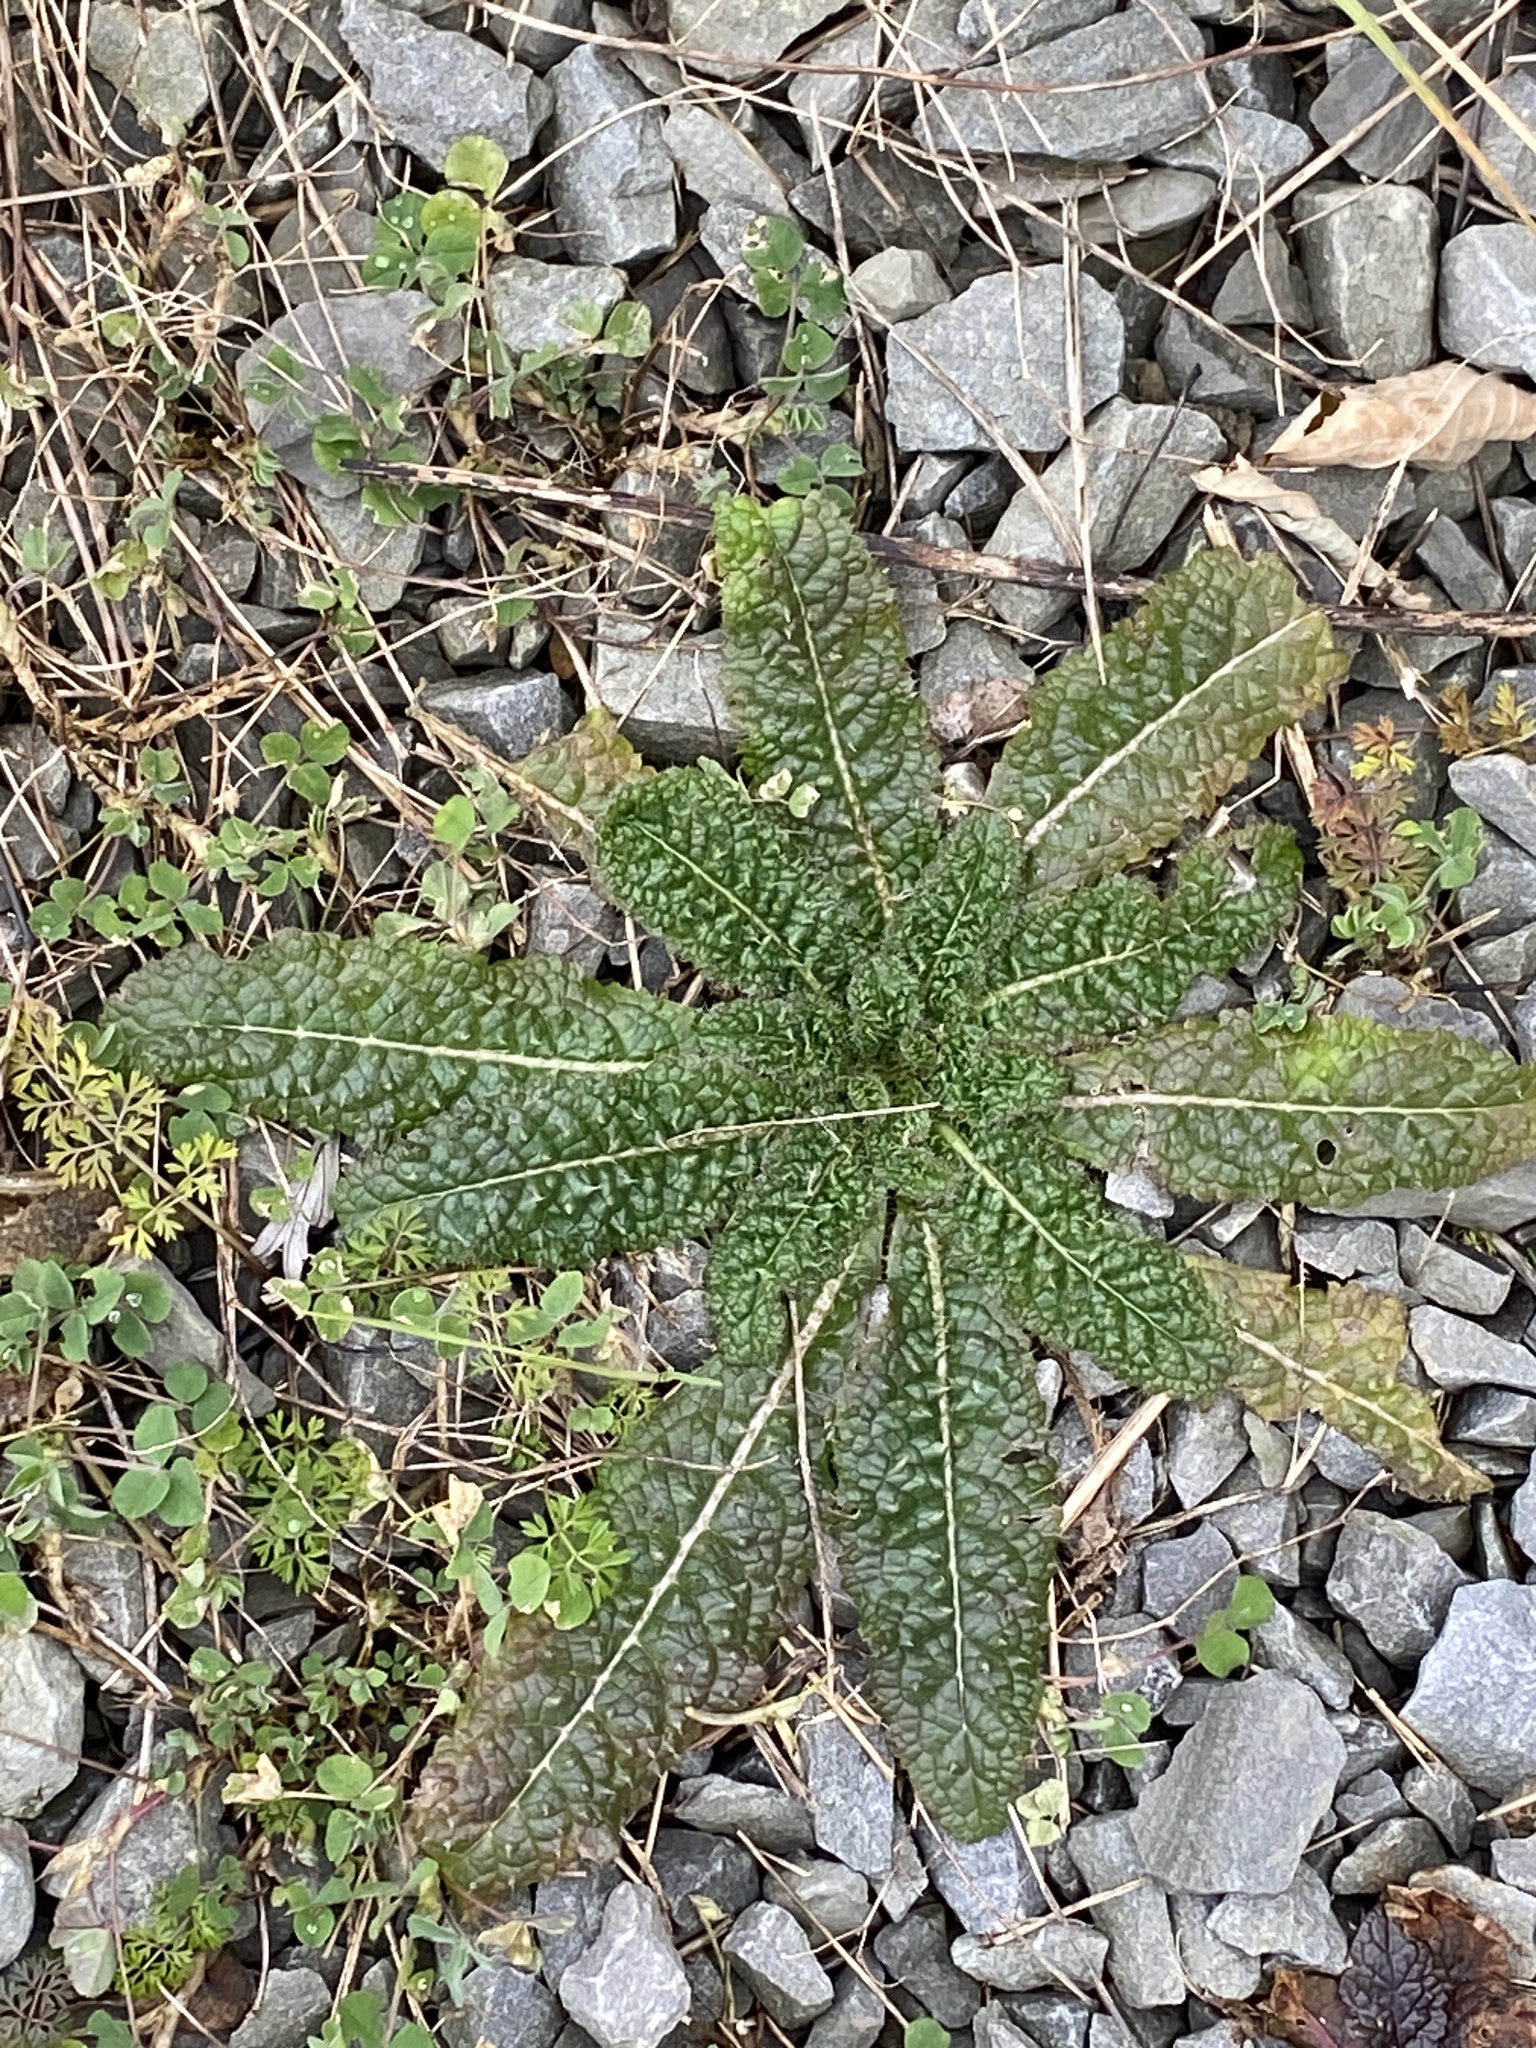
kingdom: Plantae
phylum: Tracheophyta
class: Magnoliopsida
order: Dipsacales
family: Caprifoliaceae
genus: Dipsacus
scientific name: Dipsacus fullonum
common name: Teasel
